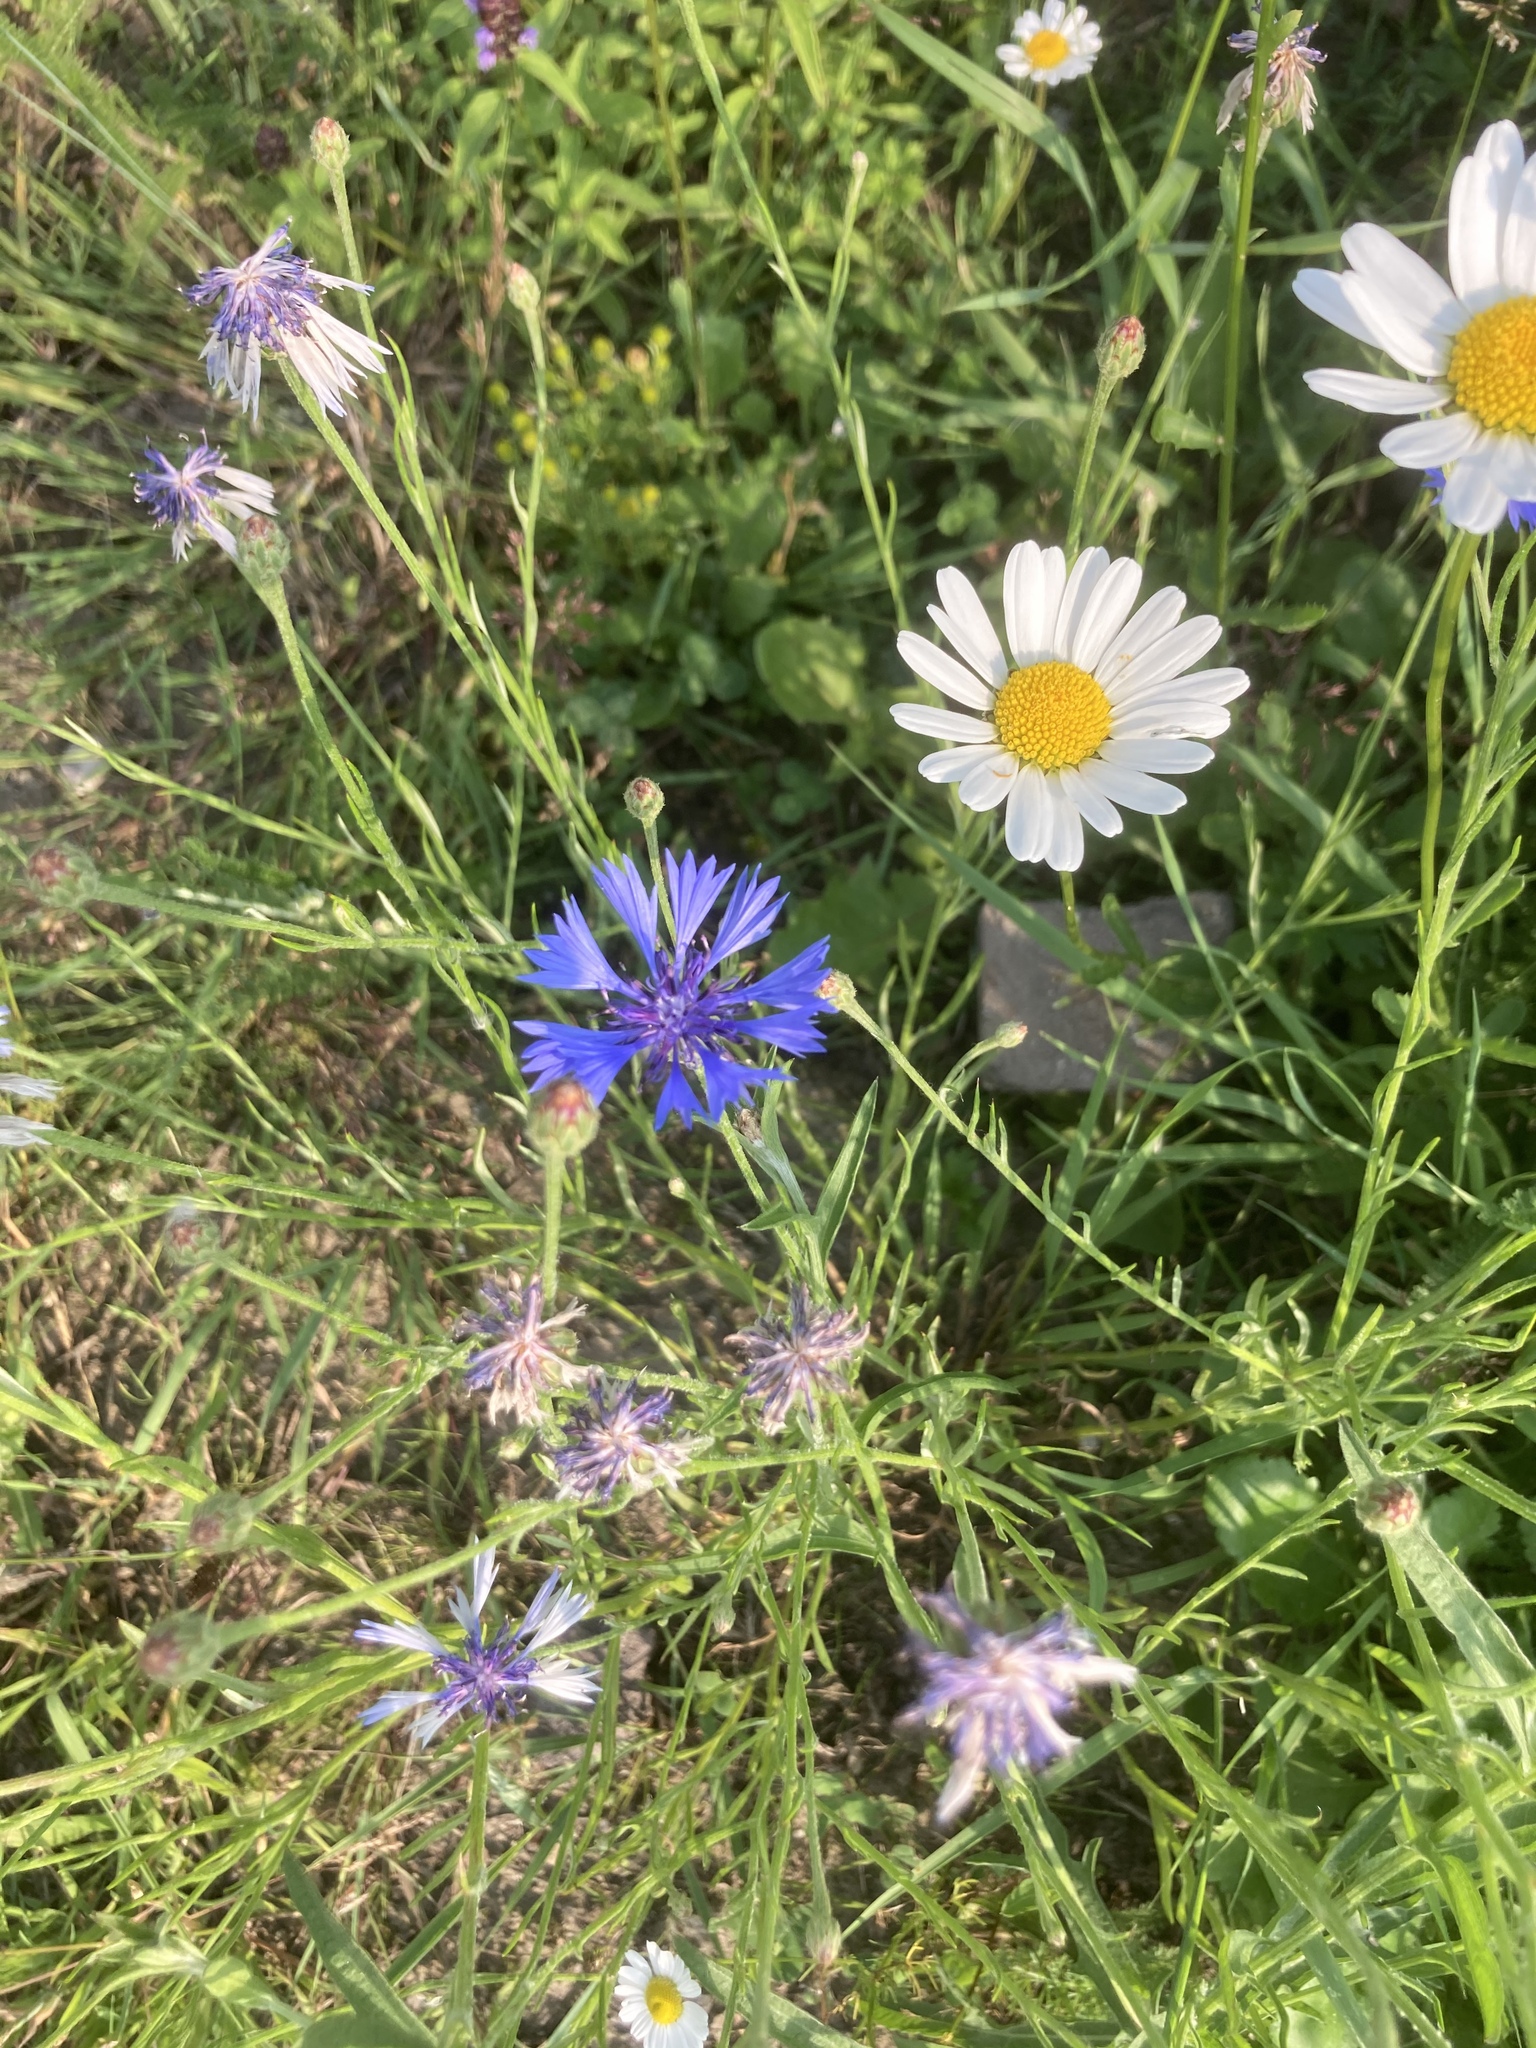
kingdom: Plantae
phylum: Tracheophyta
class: Magnoliopsida
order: Asterales
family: Asteraceae
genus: Centaurea
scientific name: Centaurea cyanus
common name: Cornflower
